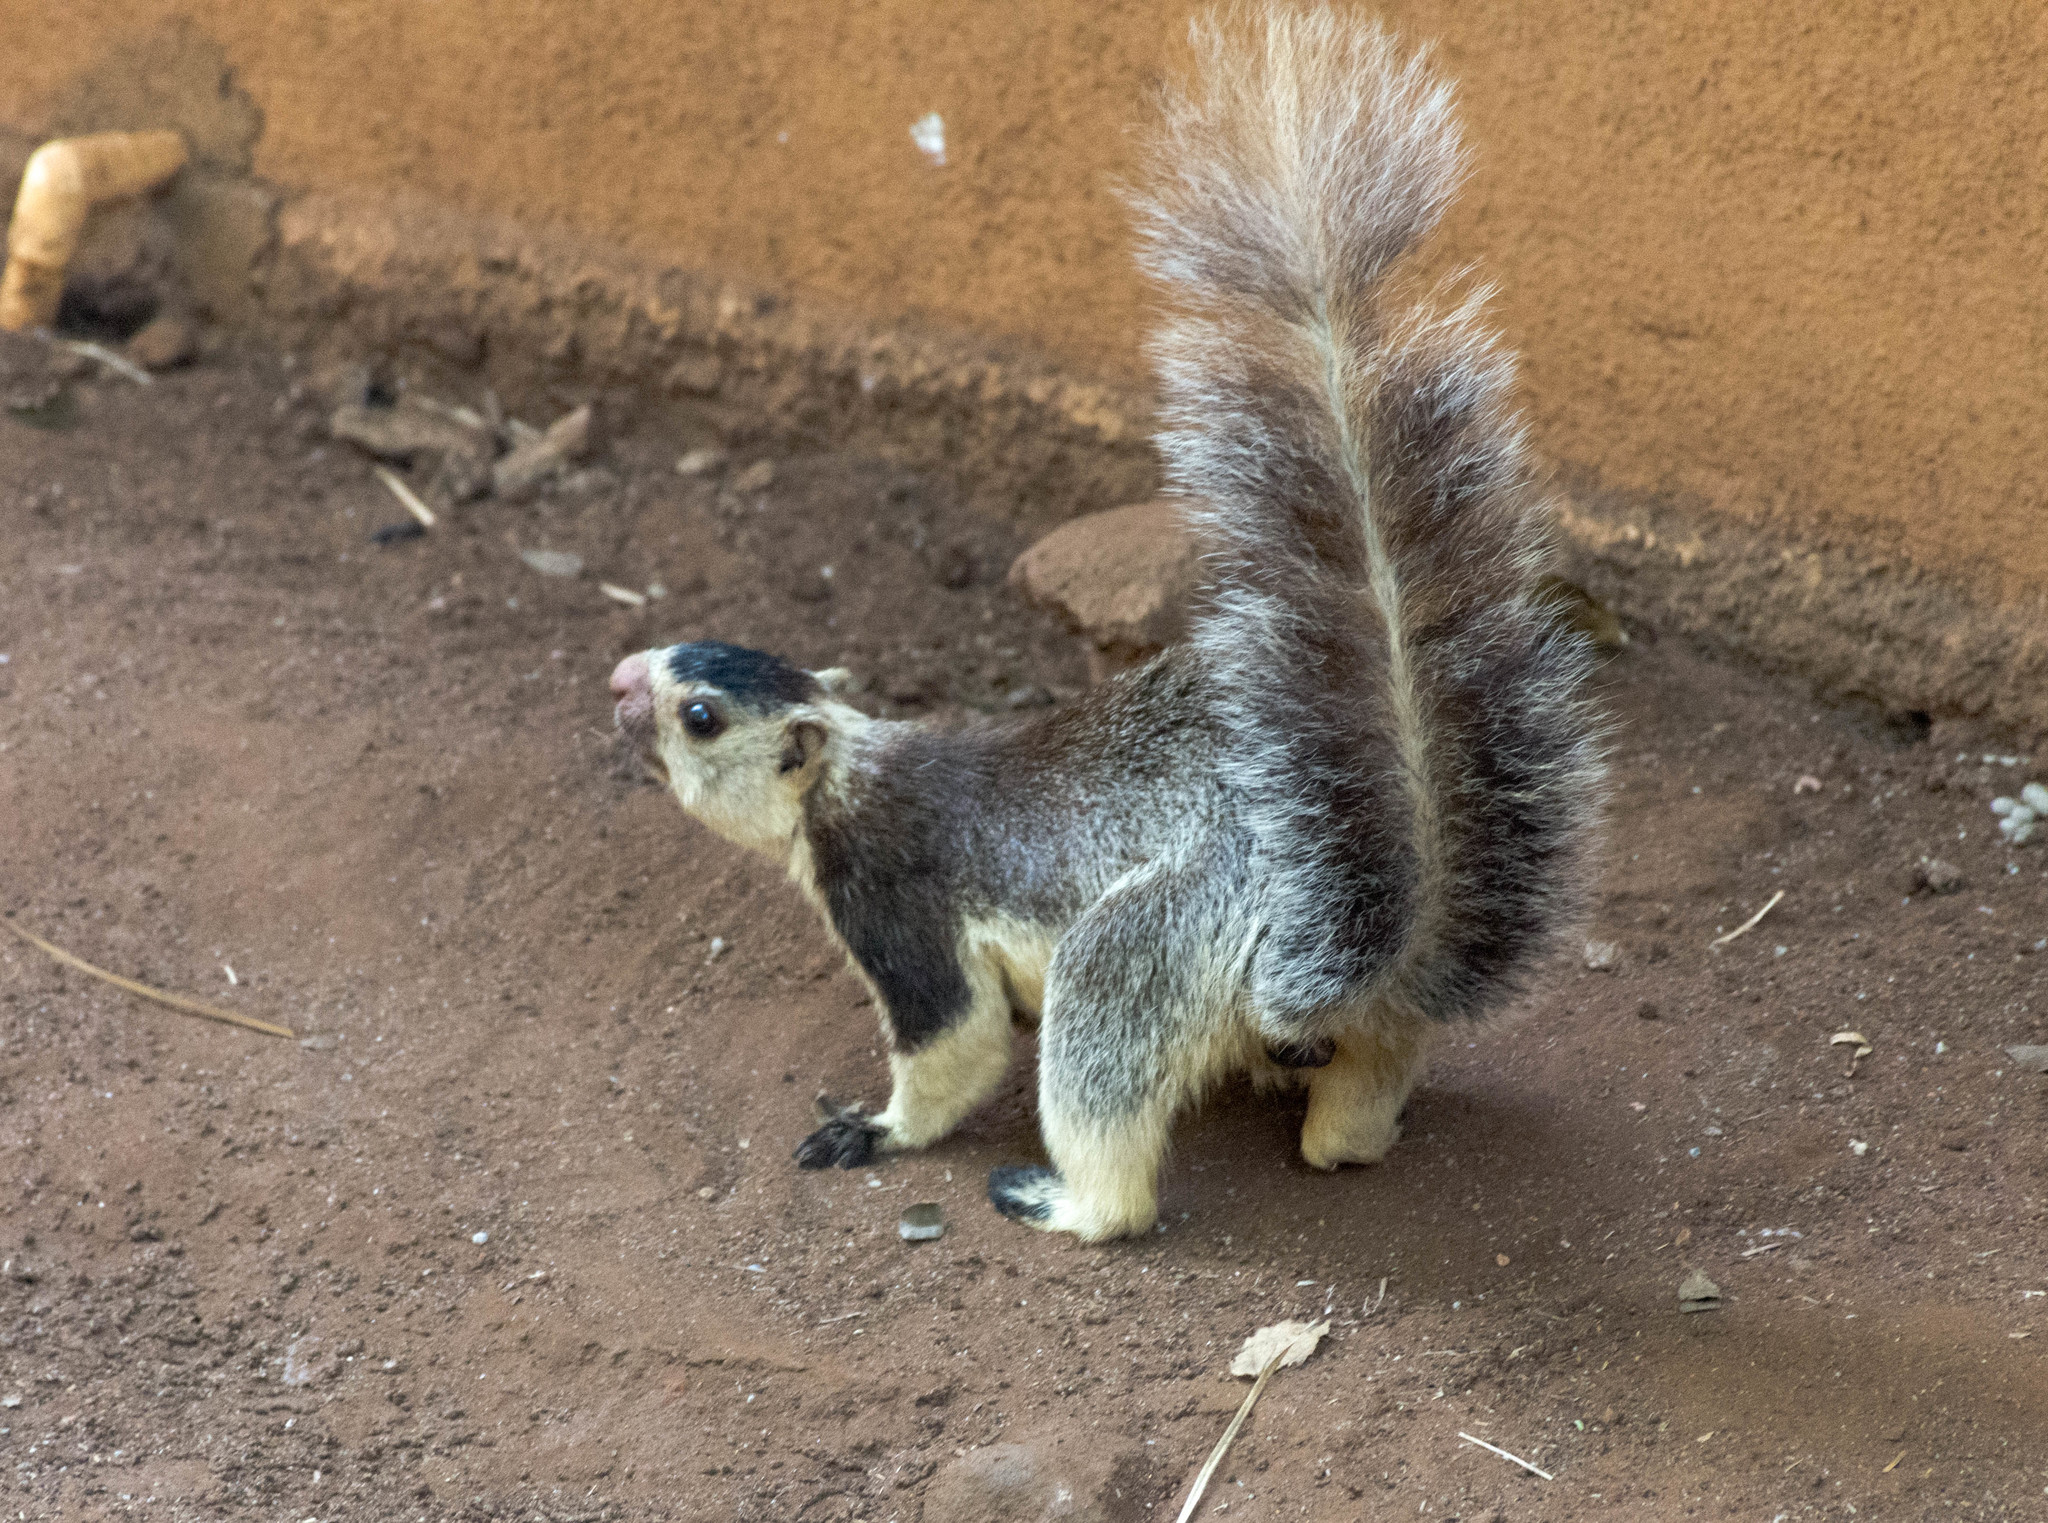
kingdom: Animalia
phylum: Chordata
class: Mammalia
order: Rodentia
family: Sciuridae
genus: Ratufa
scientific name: Ratufa macroura
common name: Sri lankan giant squirrel
